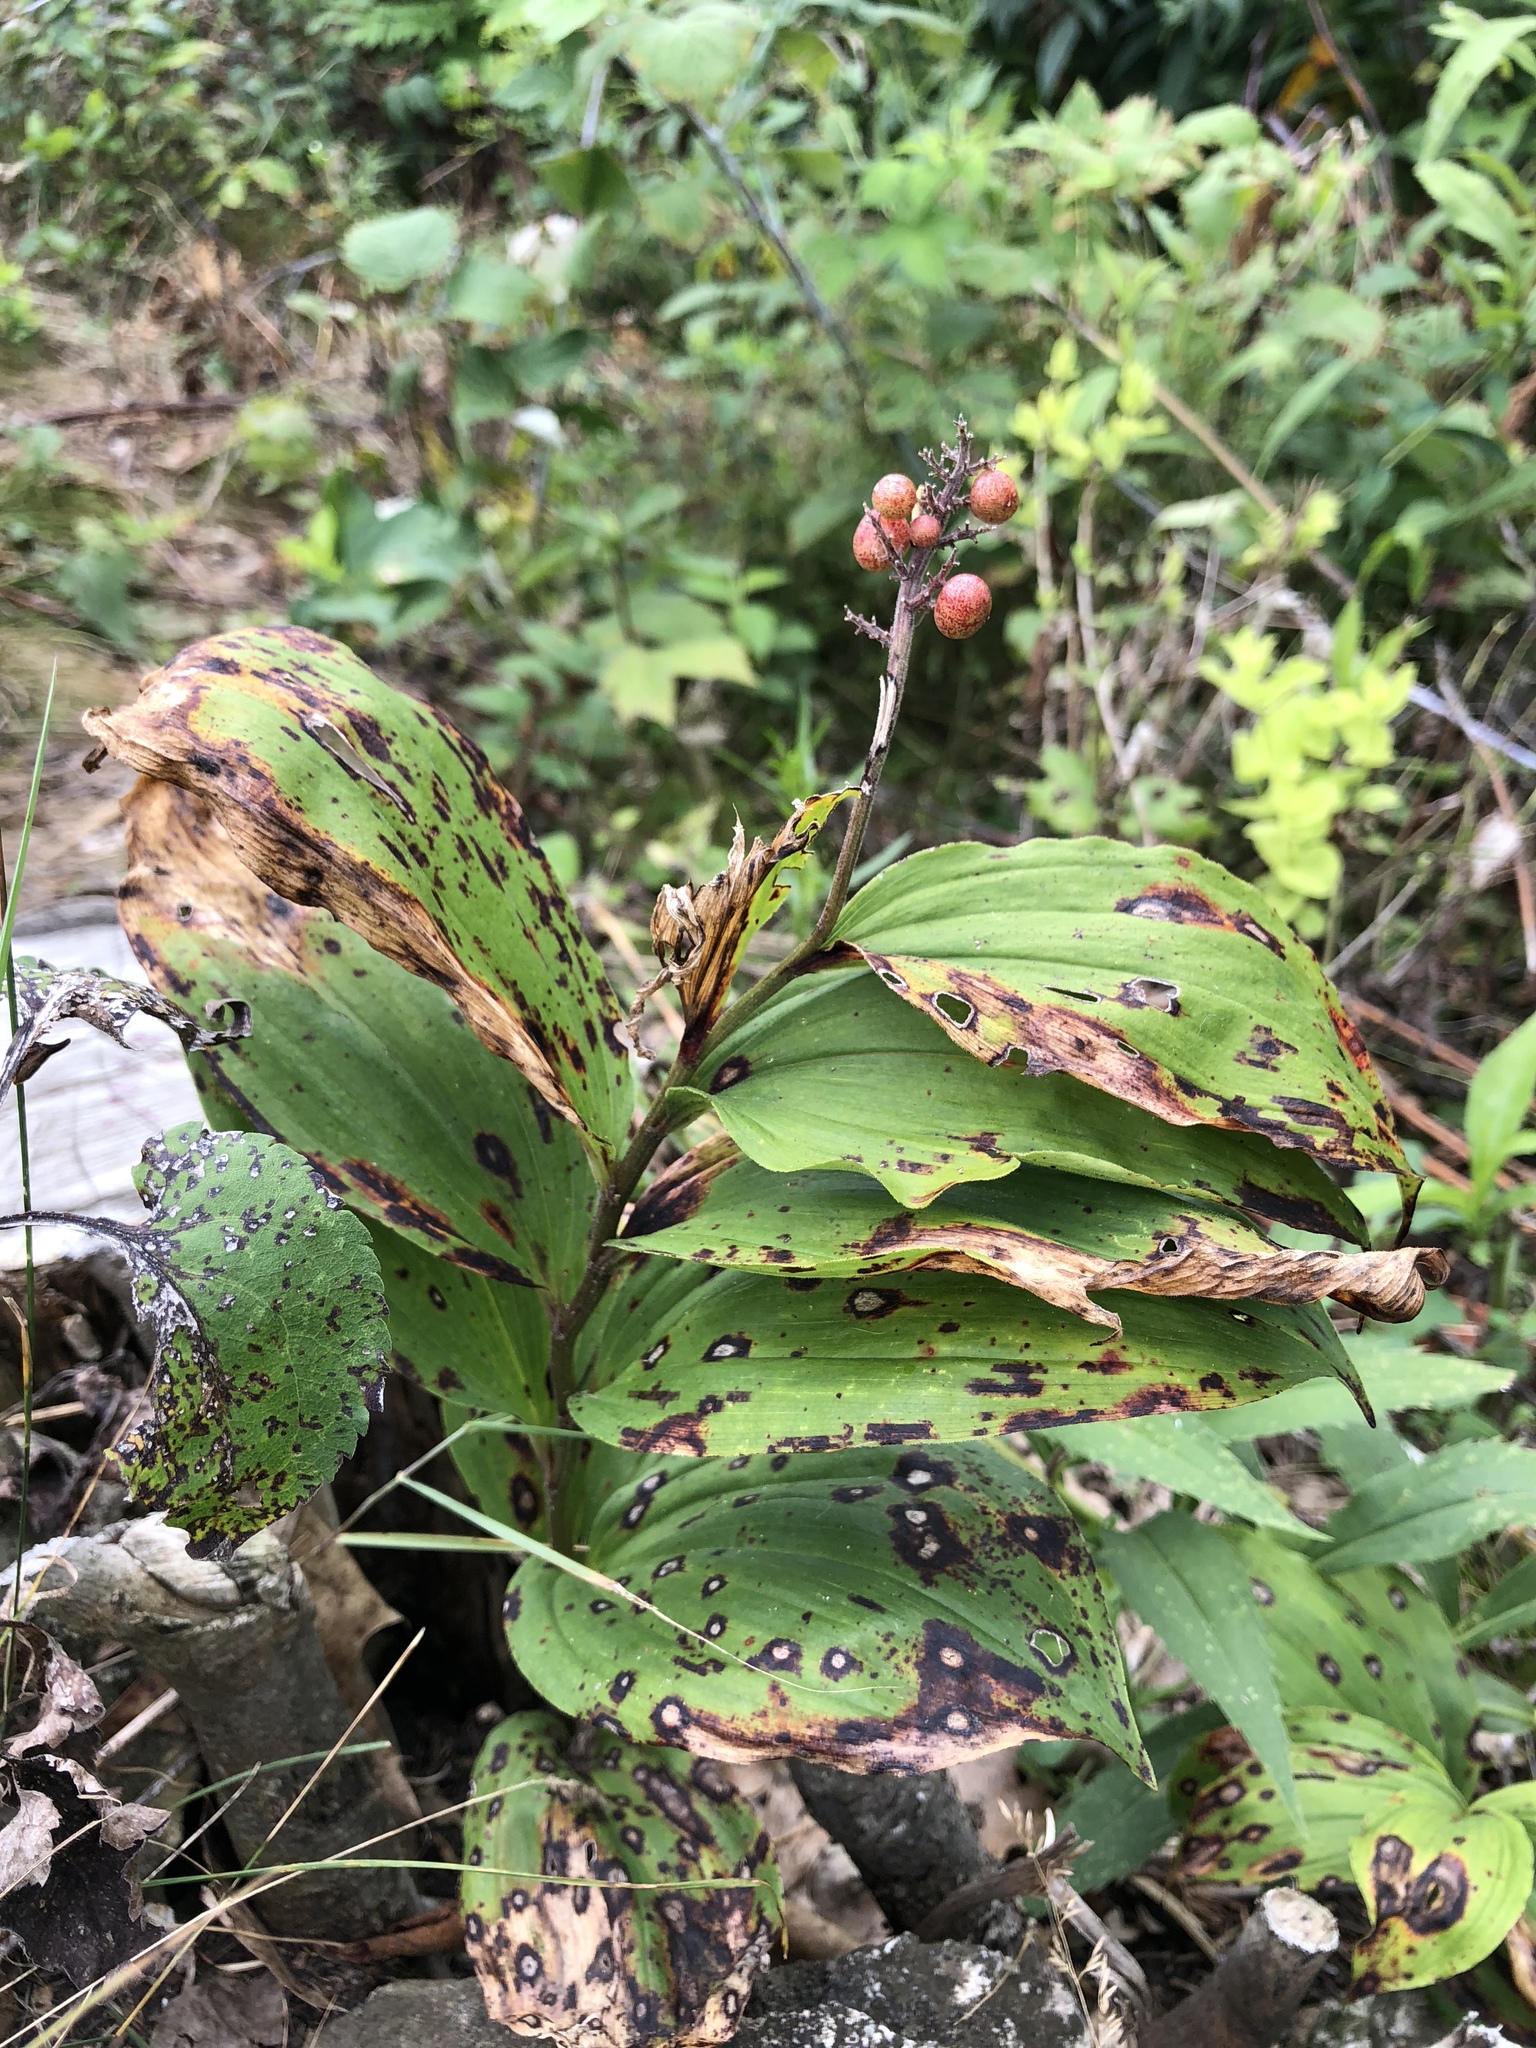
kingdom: Plantae
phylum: Tracheophyta
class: Liliopsida
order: Asparagales
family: Asparagaceae
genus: Maianthemum
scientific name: Maianthemum racemosum
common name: False spikenard
